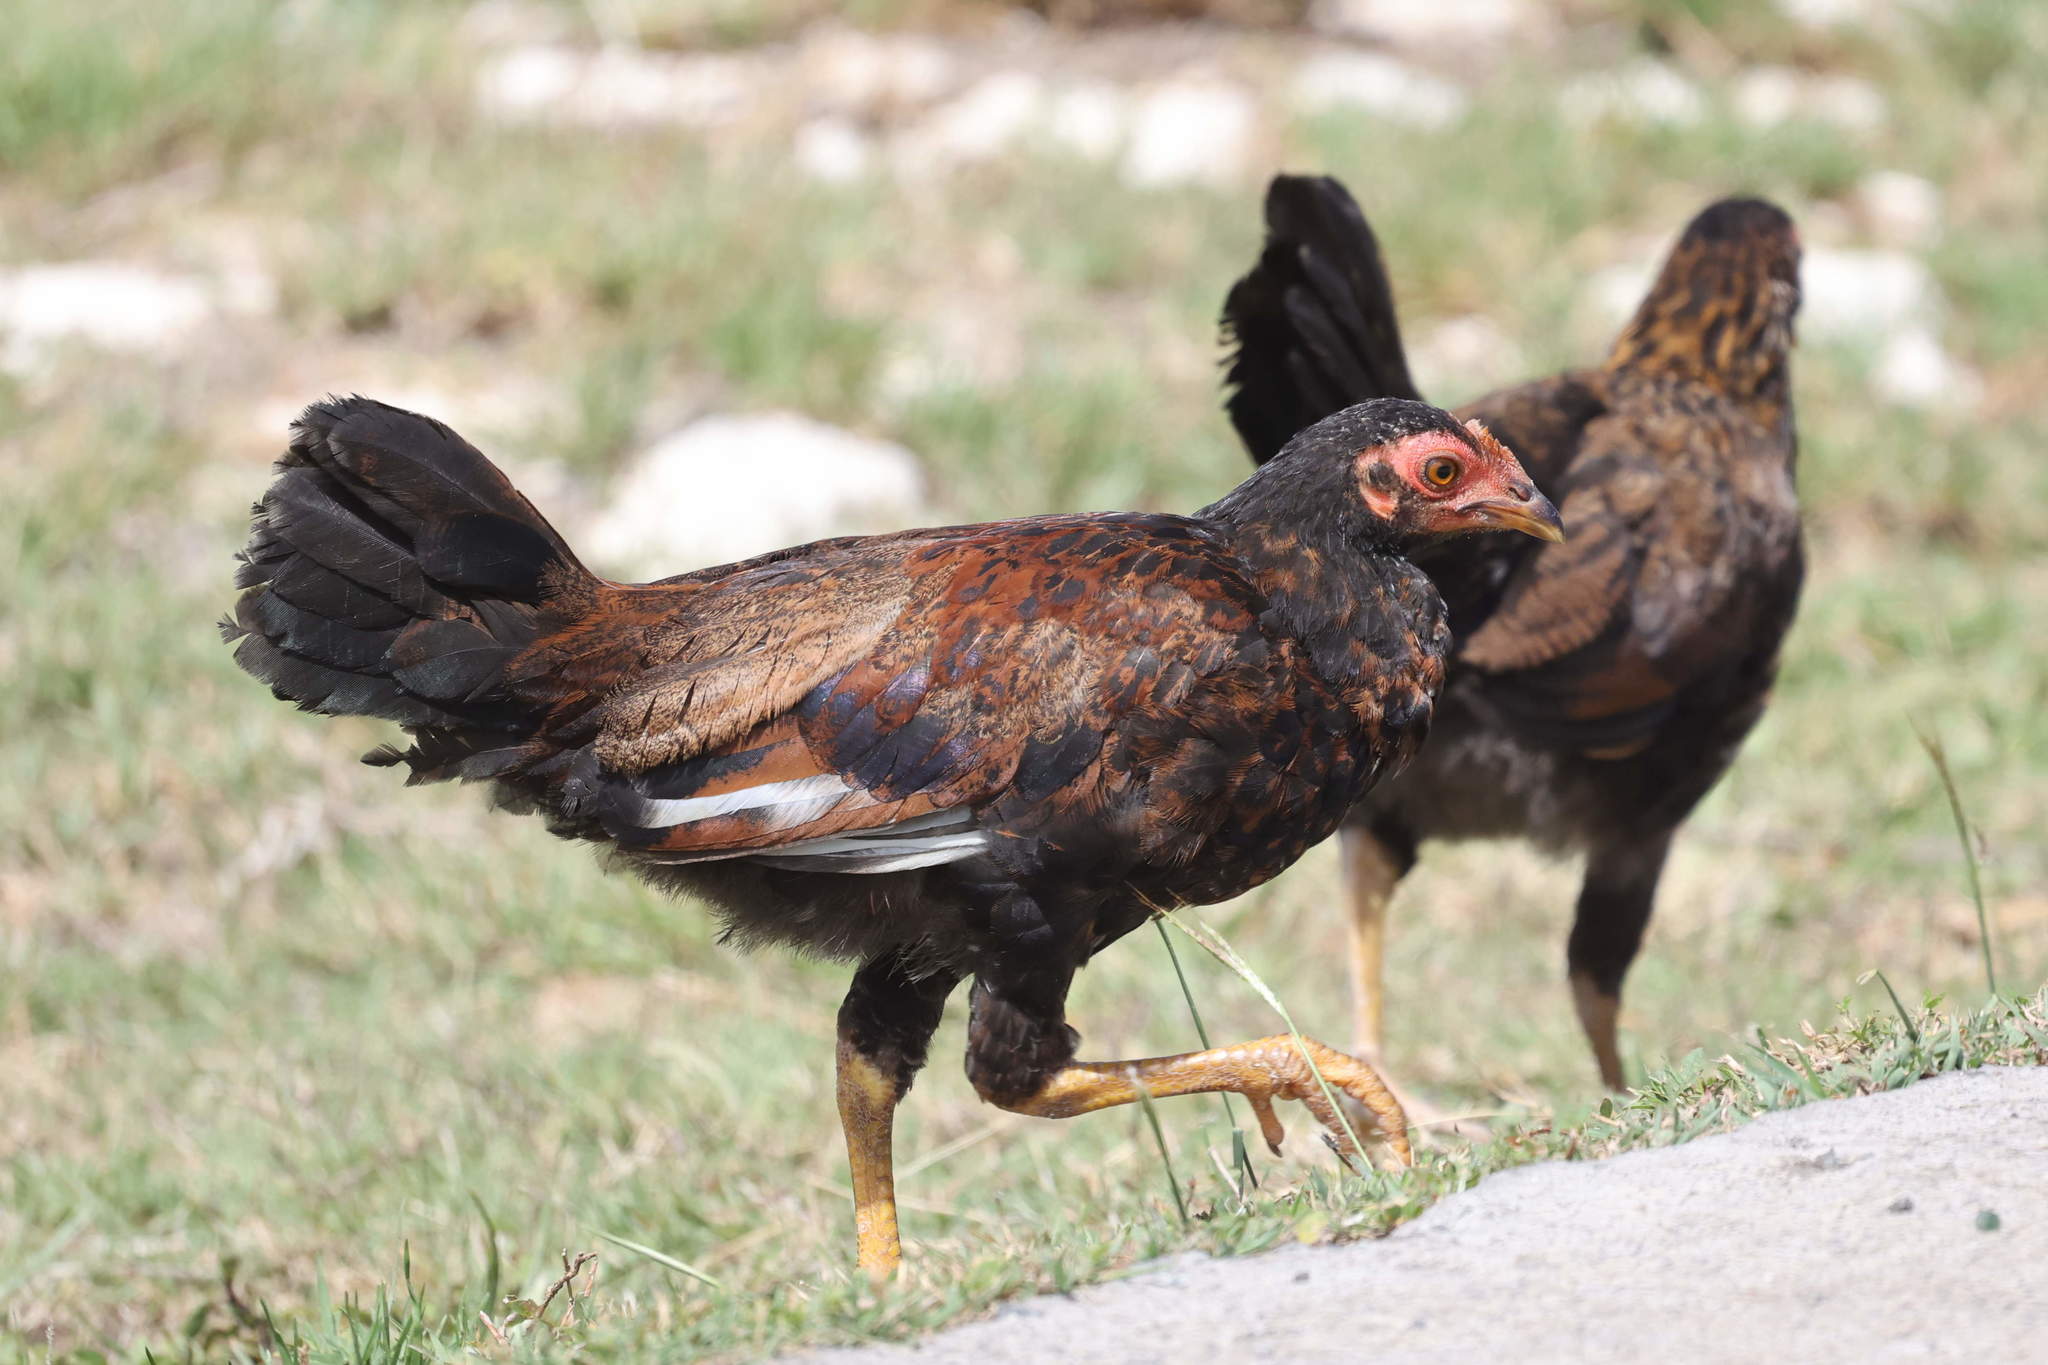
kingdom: Animalia
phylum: Chordata
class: Aves
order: Galliformes
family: Phasianidae
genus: Gallus
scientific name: Gallus gallus
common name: Red junglefowl
